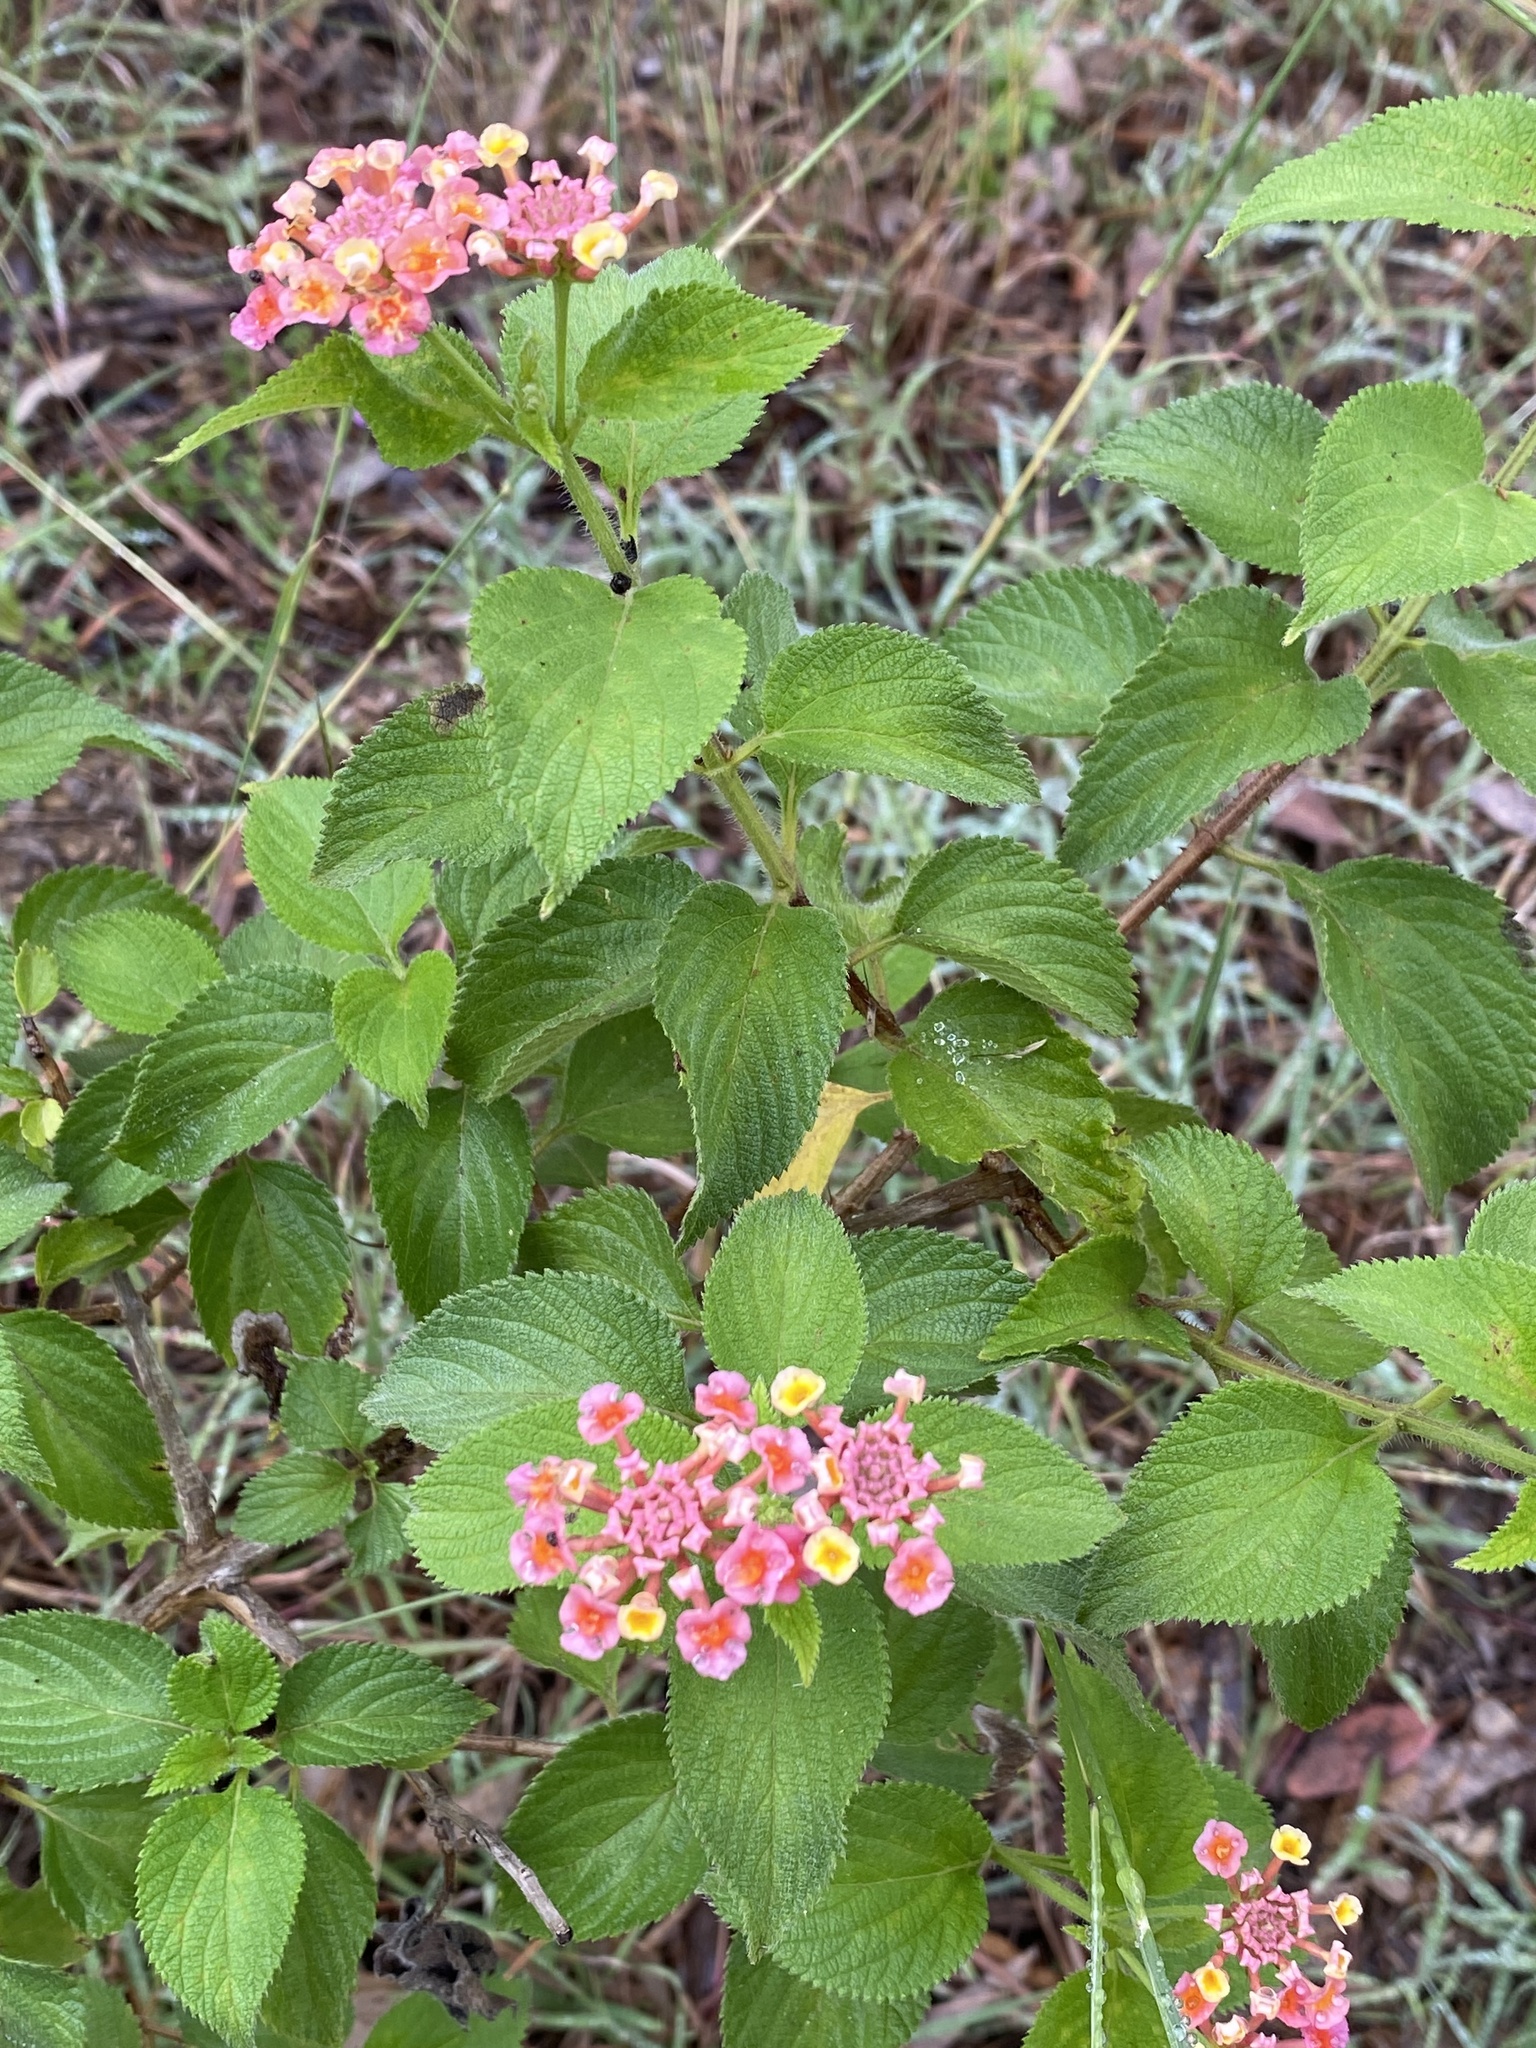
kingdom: Plantae
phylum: Tracheophyta
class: Magnoliopsida
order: Lamiales
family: Verbenaceae
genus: Lantana
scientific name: Lantana camara
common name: Lantana
